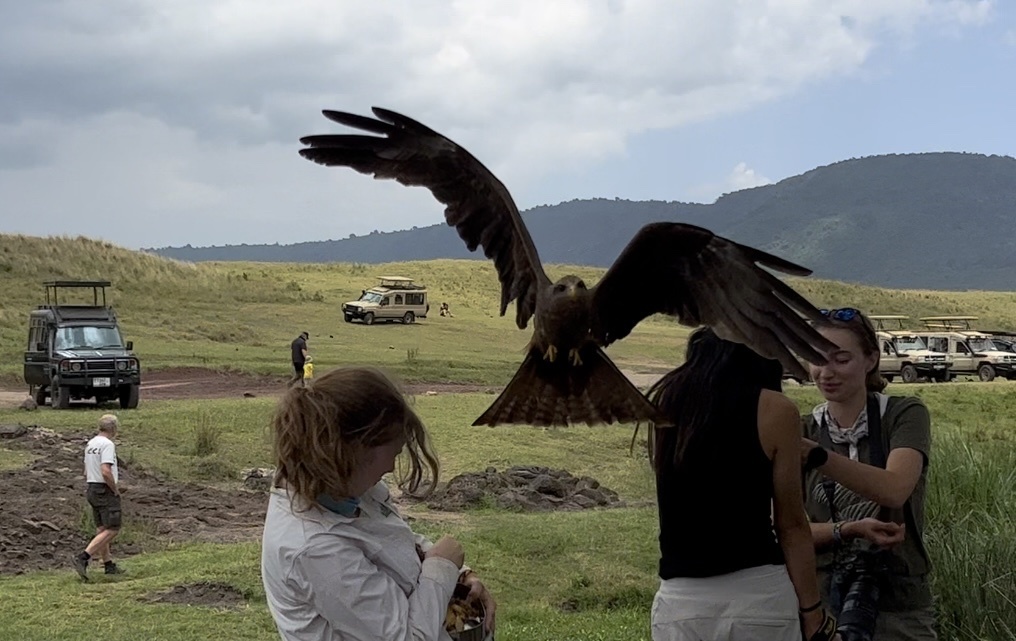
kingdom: Animalia
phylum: Chordata
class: Aves
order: Accipitriformes
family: Accipitridae
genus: Milvus
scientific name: Milvus migrans
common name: Black kite
